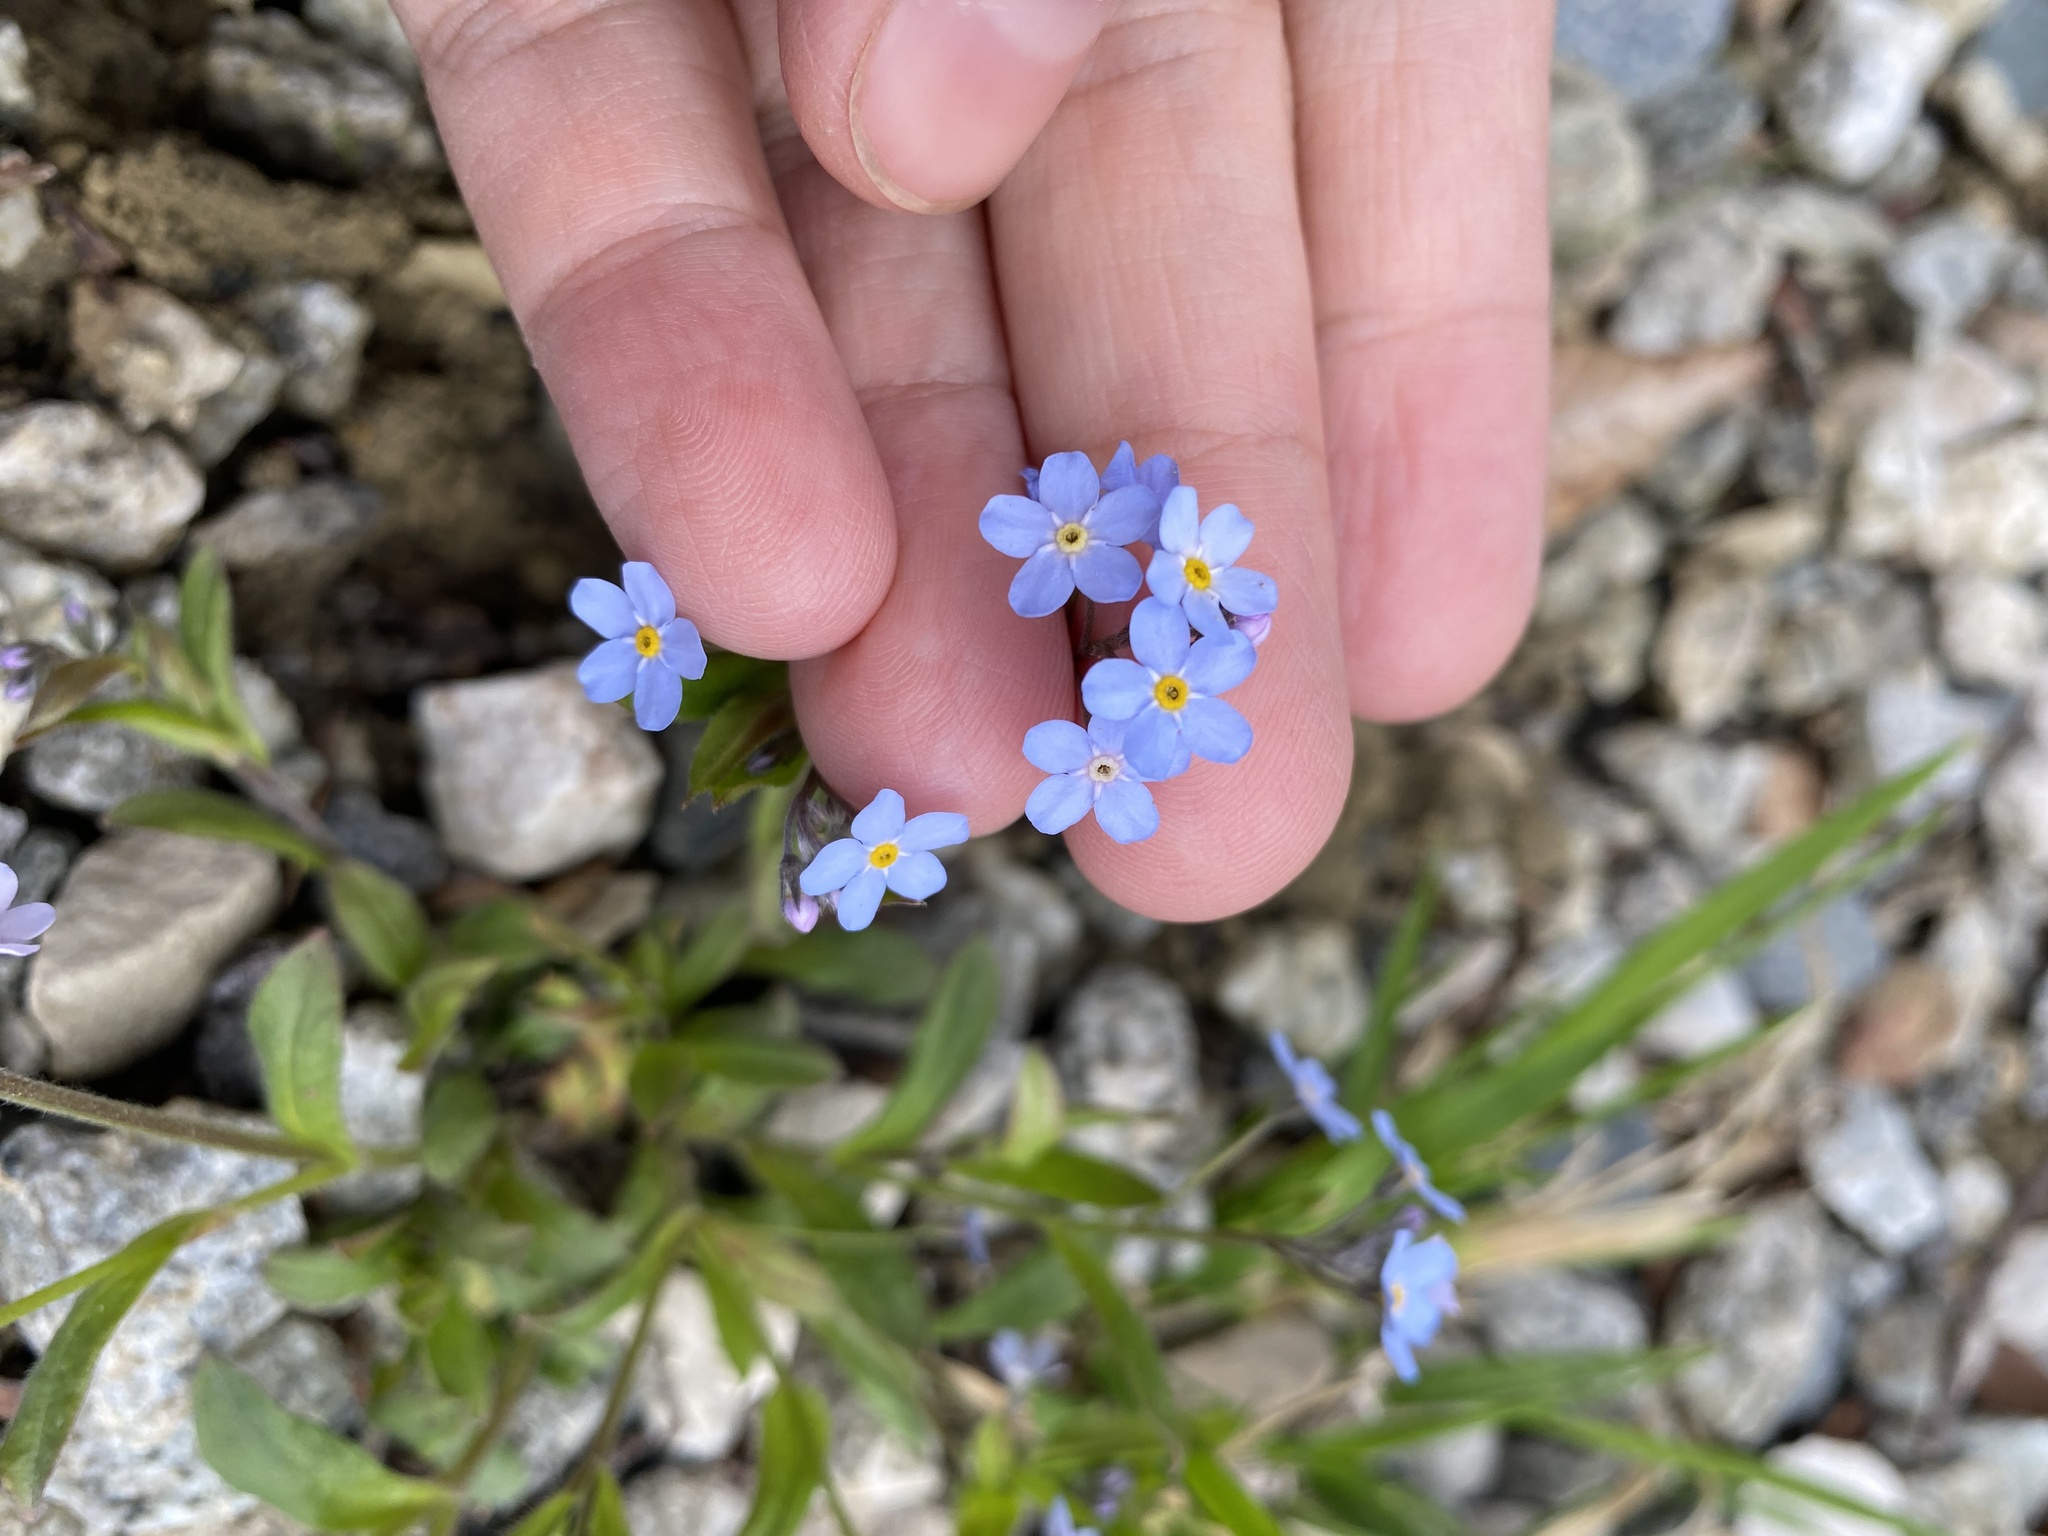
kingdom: Plantae
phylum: Tracheophyta
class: Magnoliopsida
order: Boraginales
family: Boraginaceae
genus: Myosotis
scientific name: Myosotis alpestris
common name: Alpine forget-me-not
